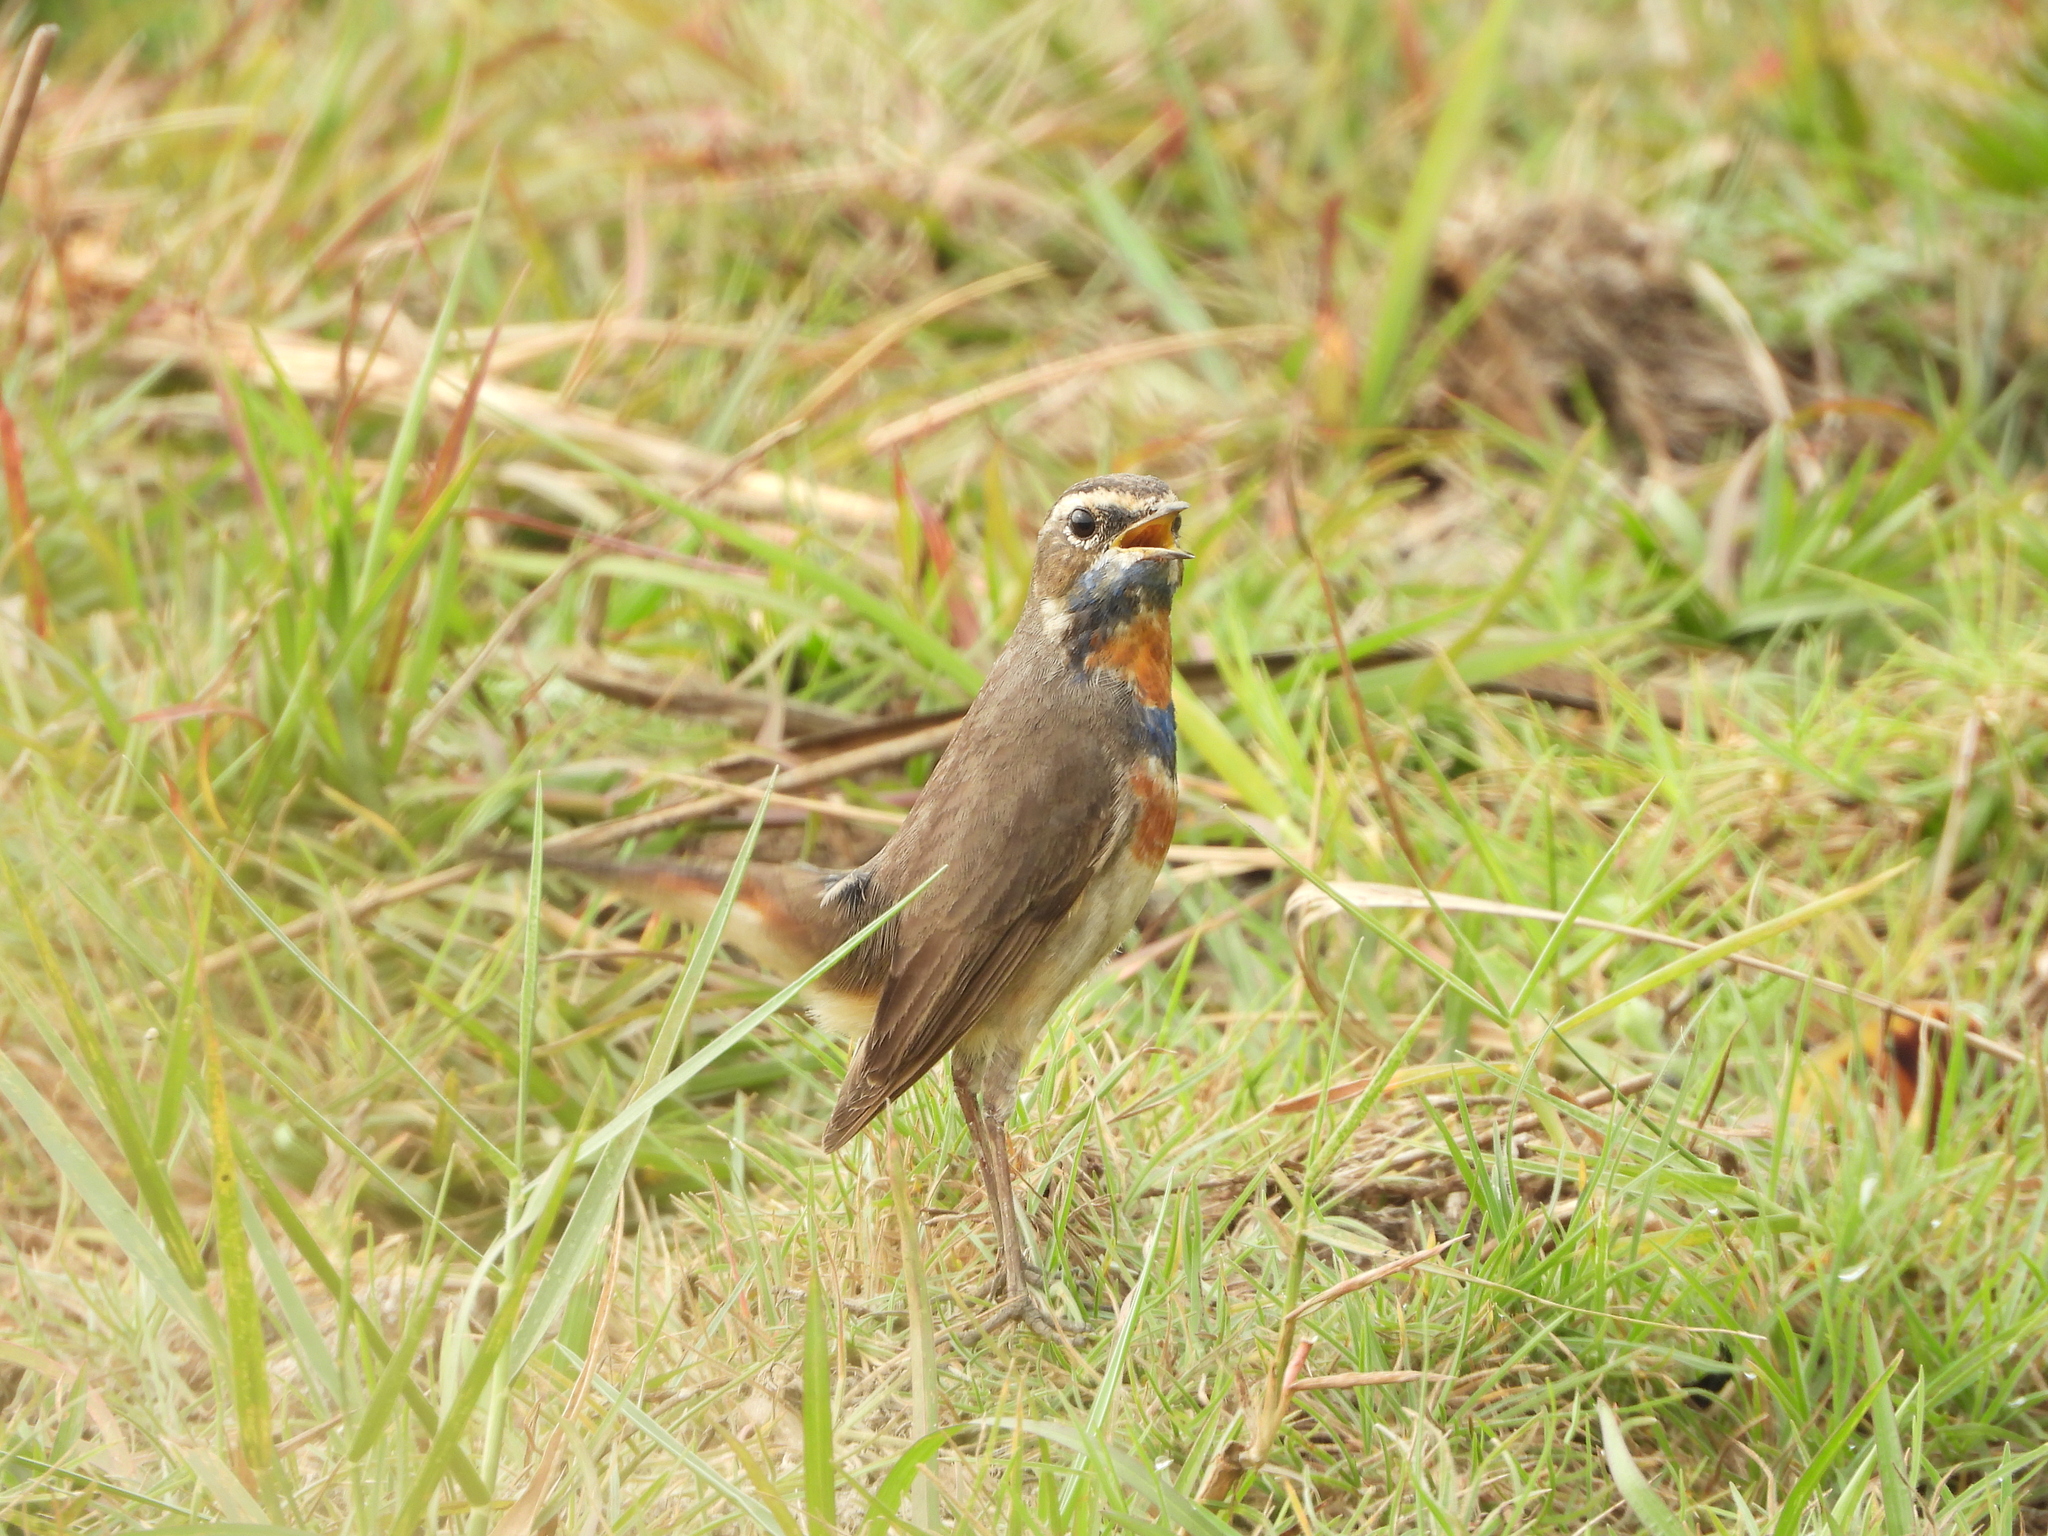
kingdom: Animalia
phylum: Chordata
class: Aves
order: Passeriformes
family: Muscicapidae
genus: Luscinia
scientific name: Luscinia svecica
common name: Bluethroat
